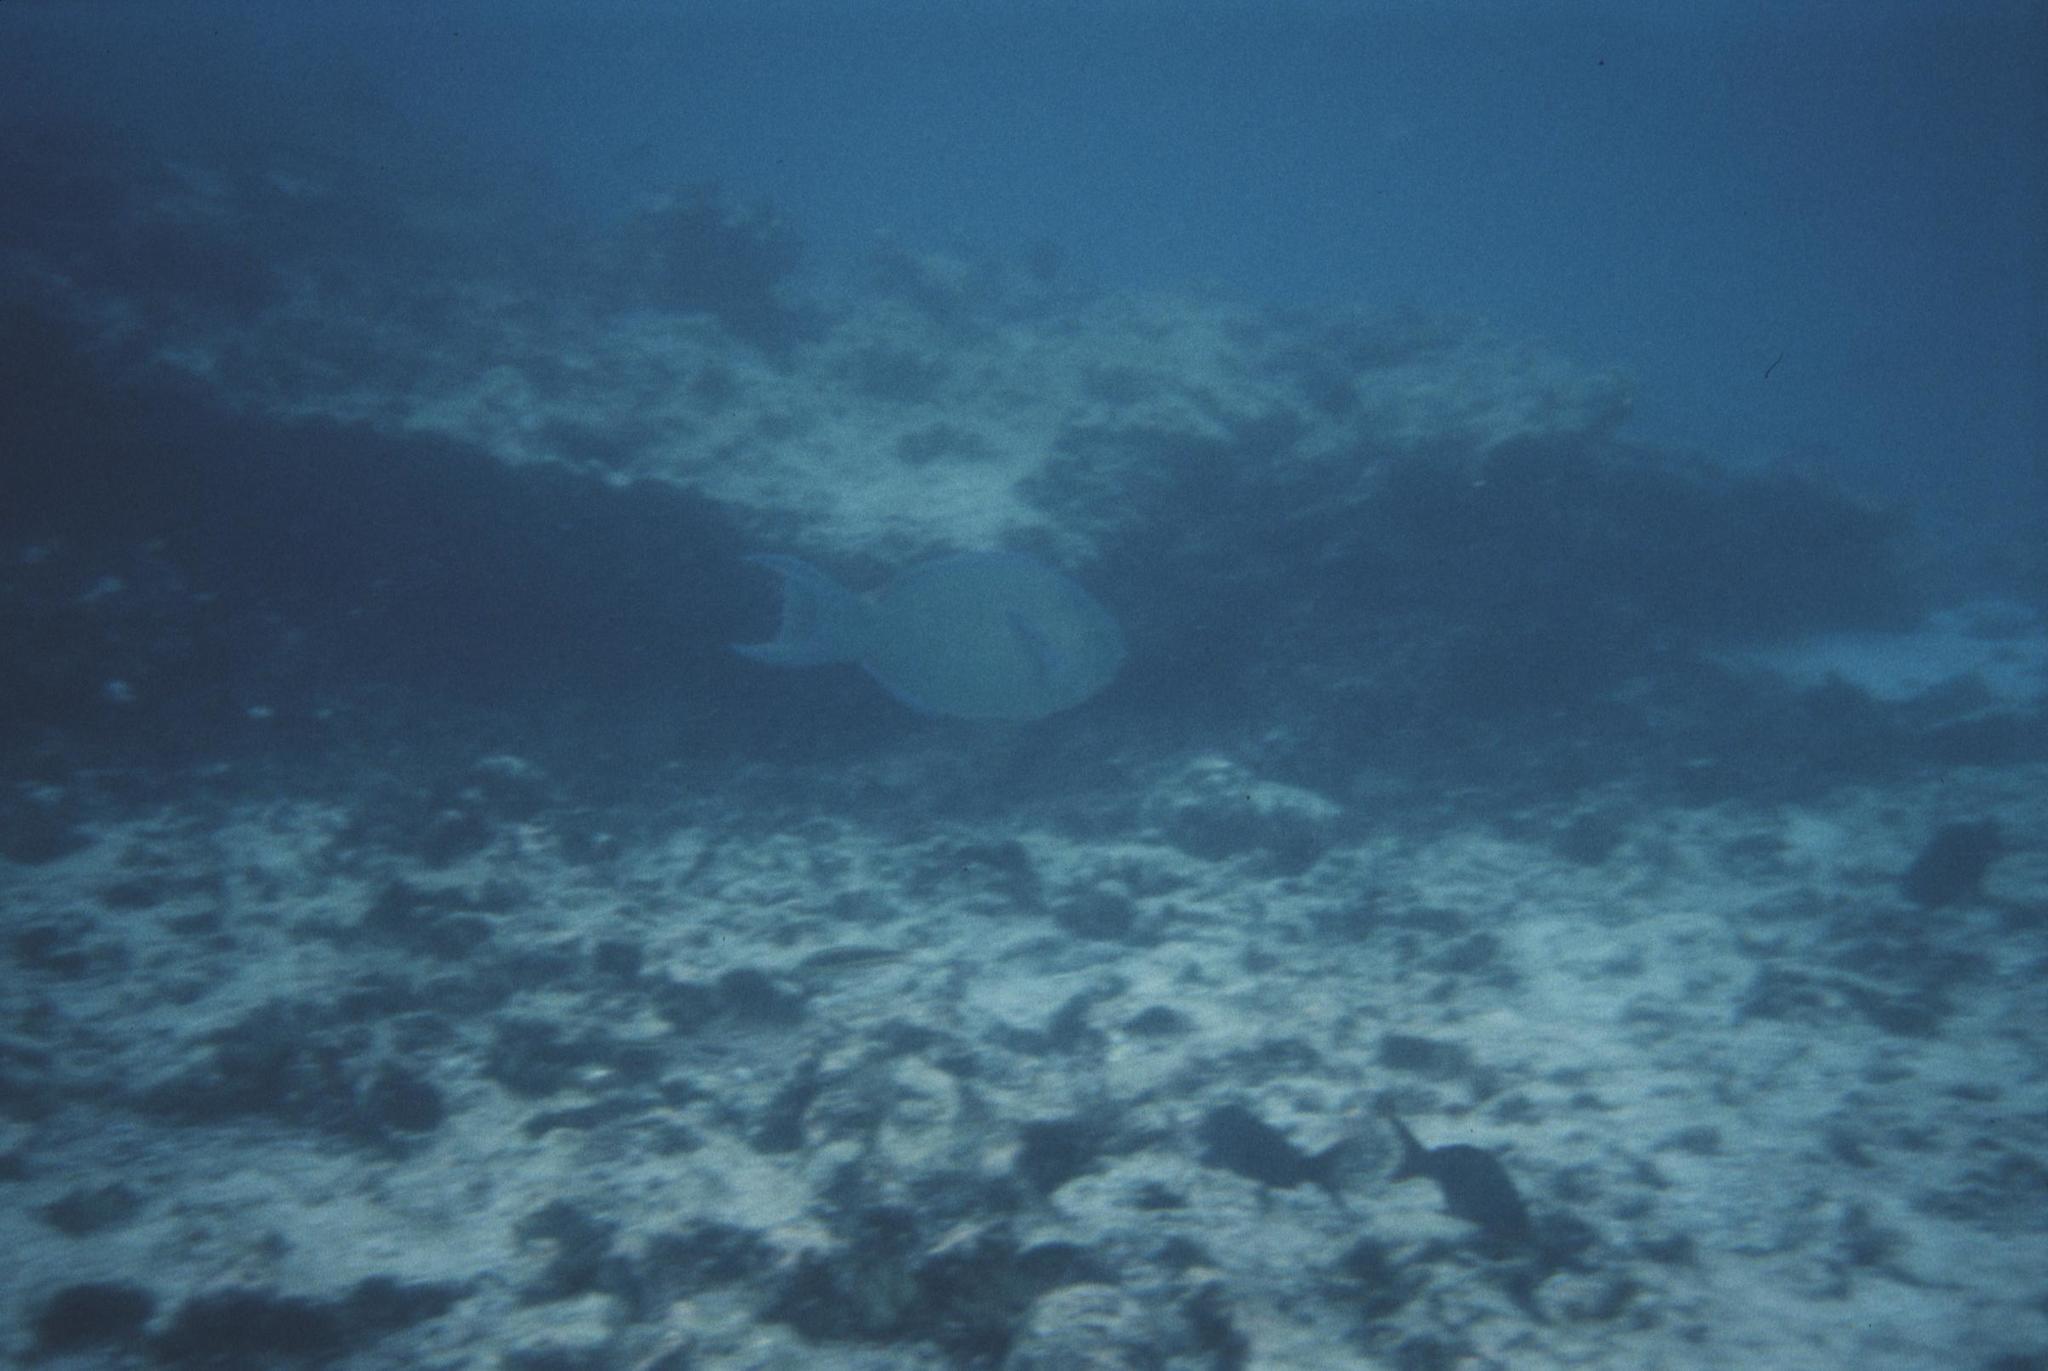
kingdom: Animalia
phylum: Chordata
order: Perciformes
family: Scaridae
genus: Scarus
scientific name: Scarus rubroviolaceus
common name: Ember parrotfish
